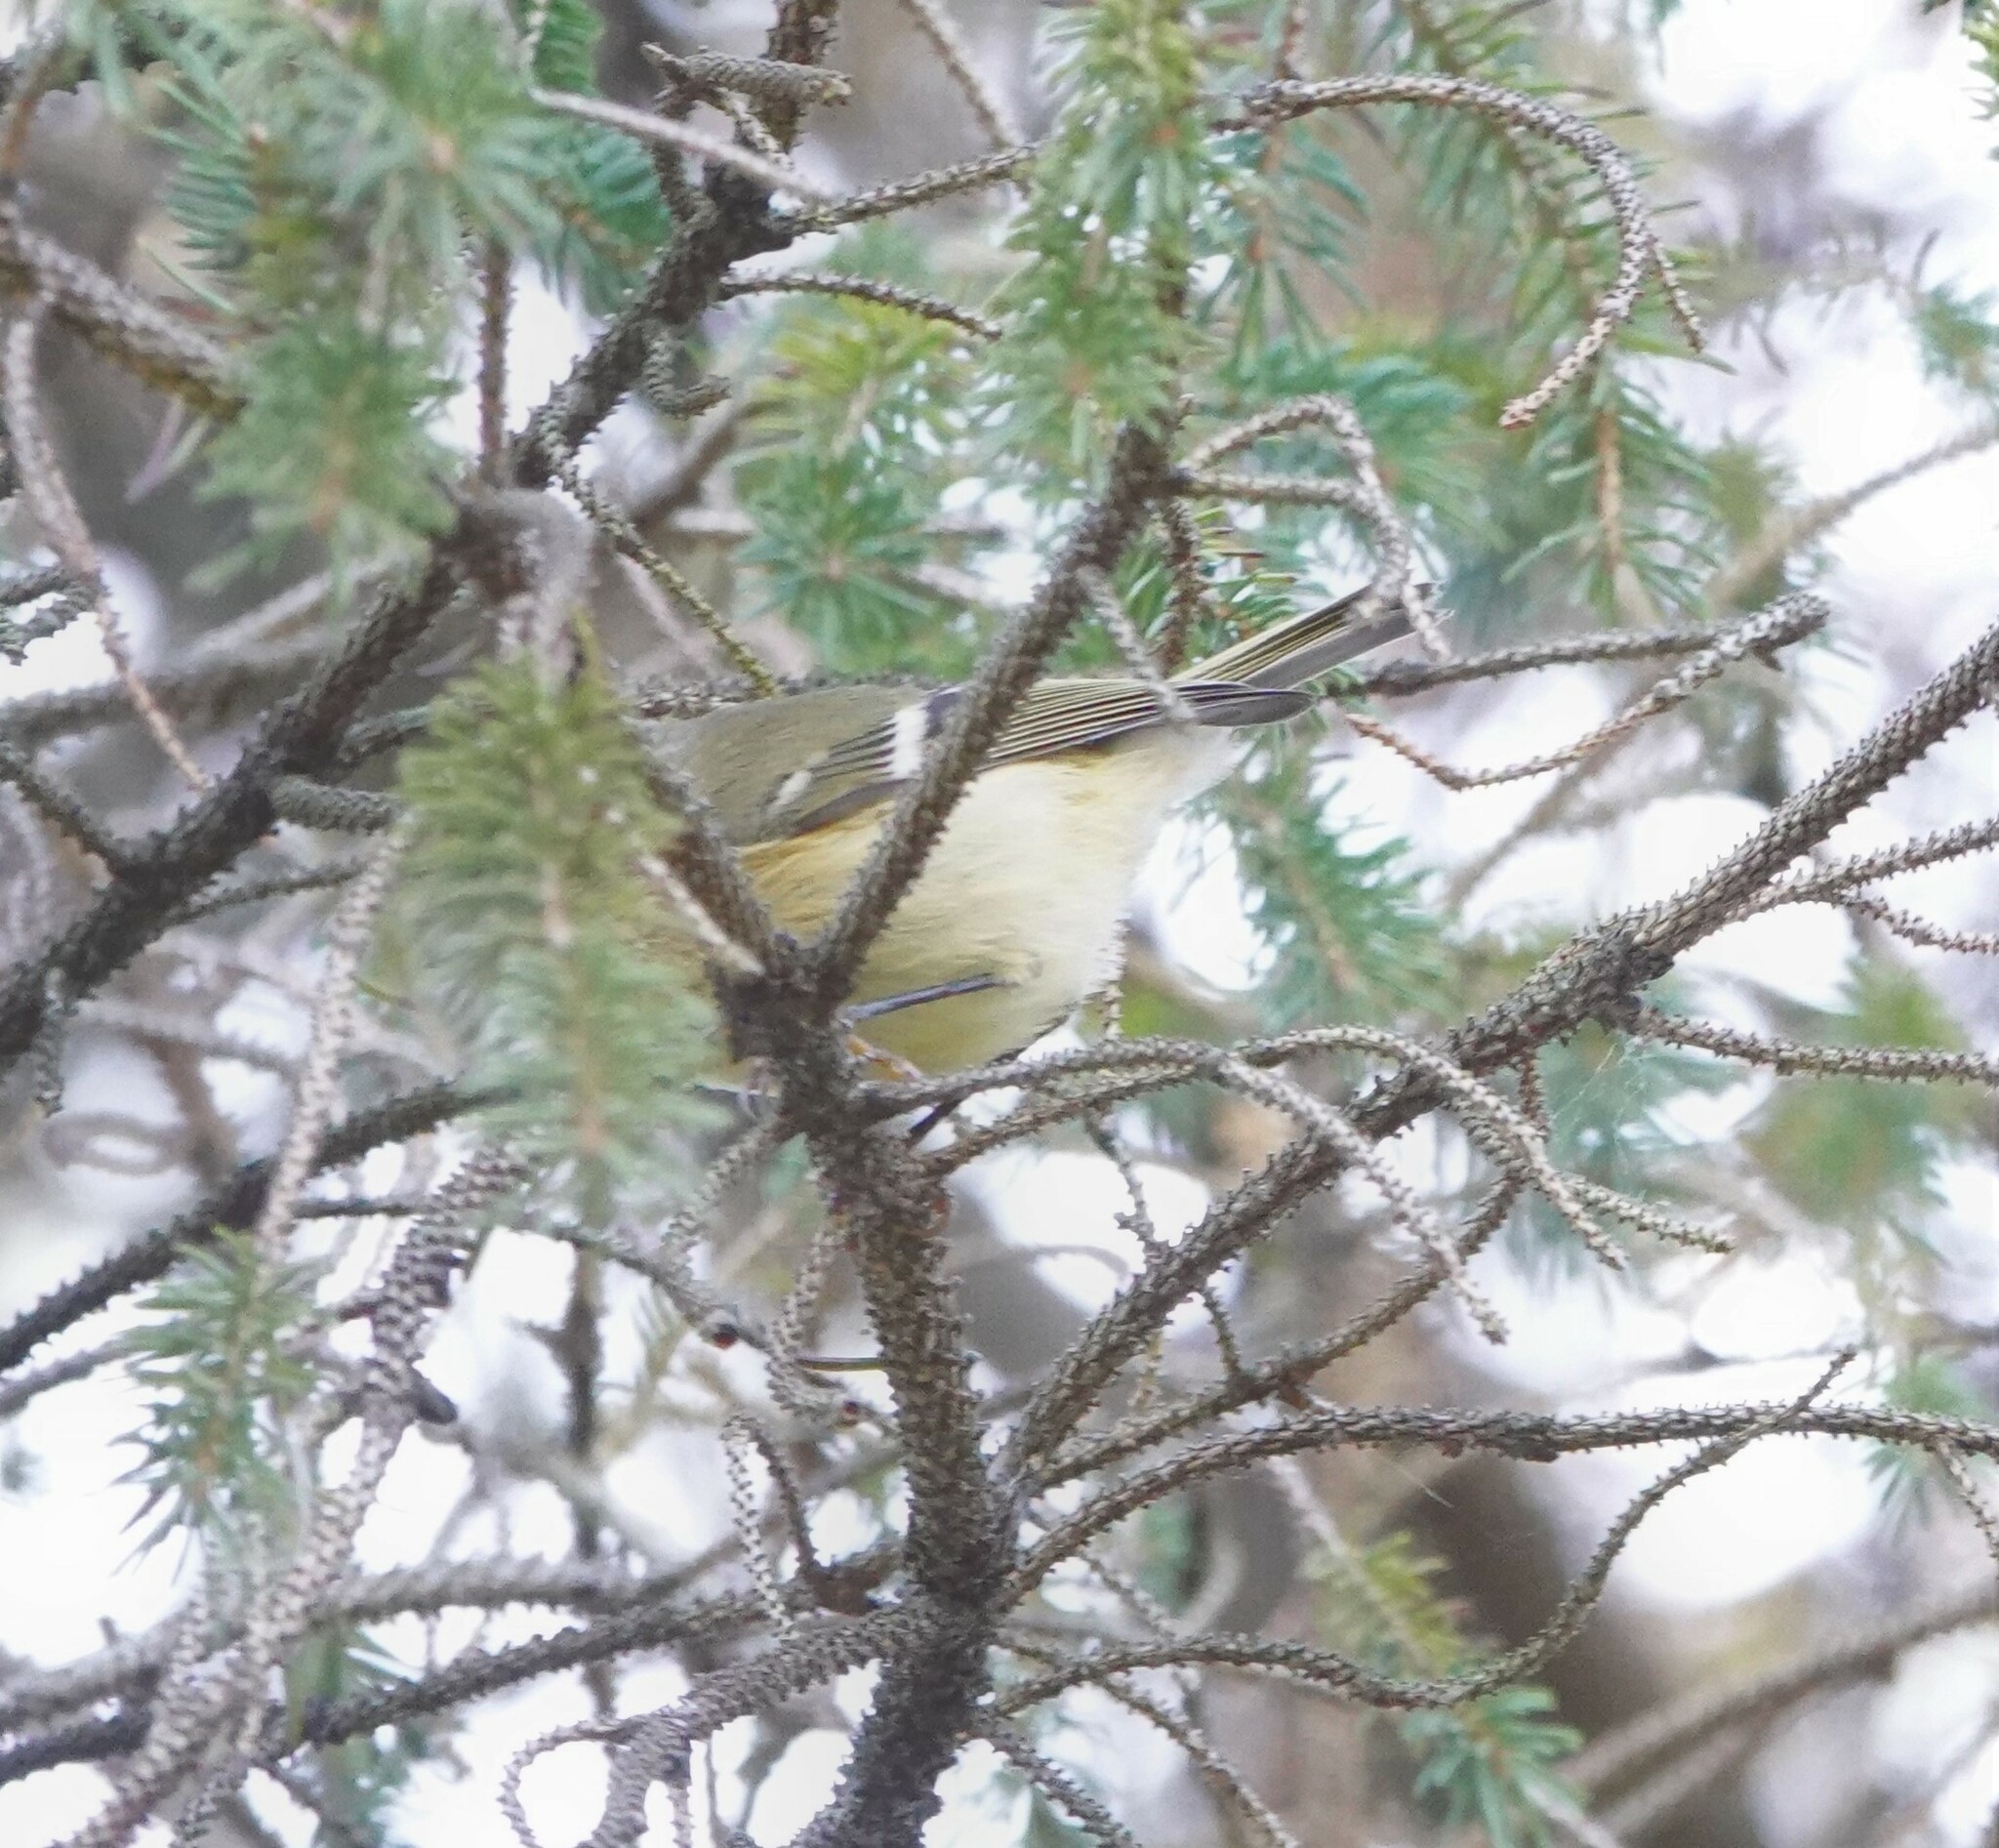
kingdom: Animalia
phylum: Chordata
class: Aves
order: Passeriformes
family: Regulidae
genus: Regulus
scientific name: Regulus calendula
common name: Ruby-crowned kinglet
